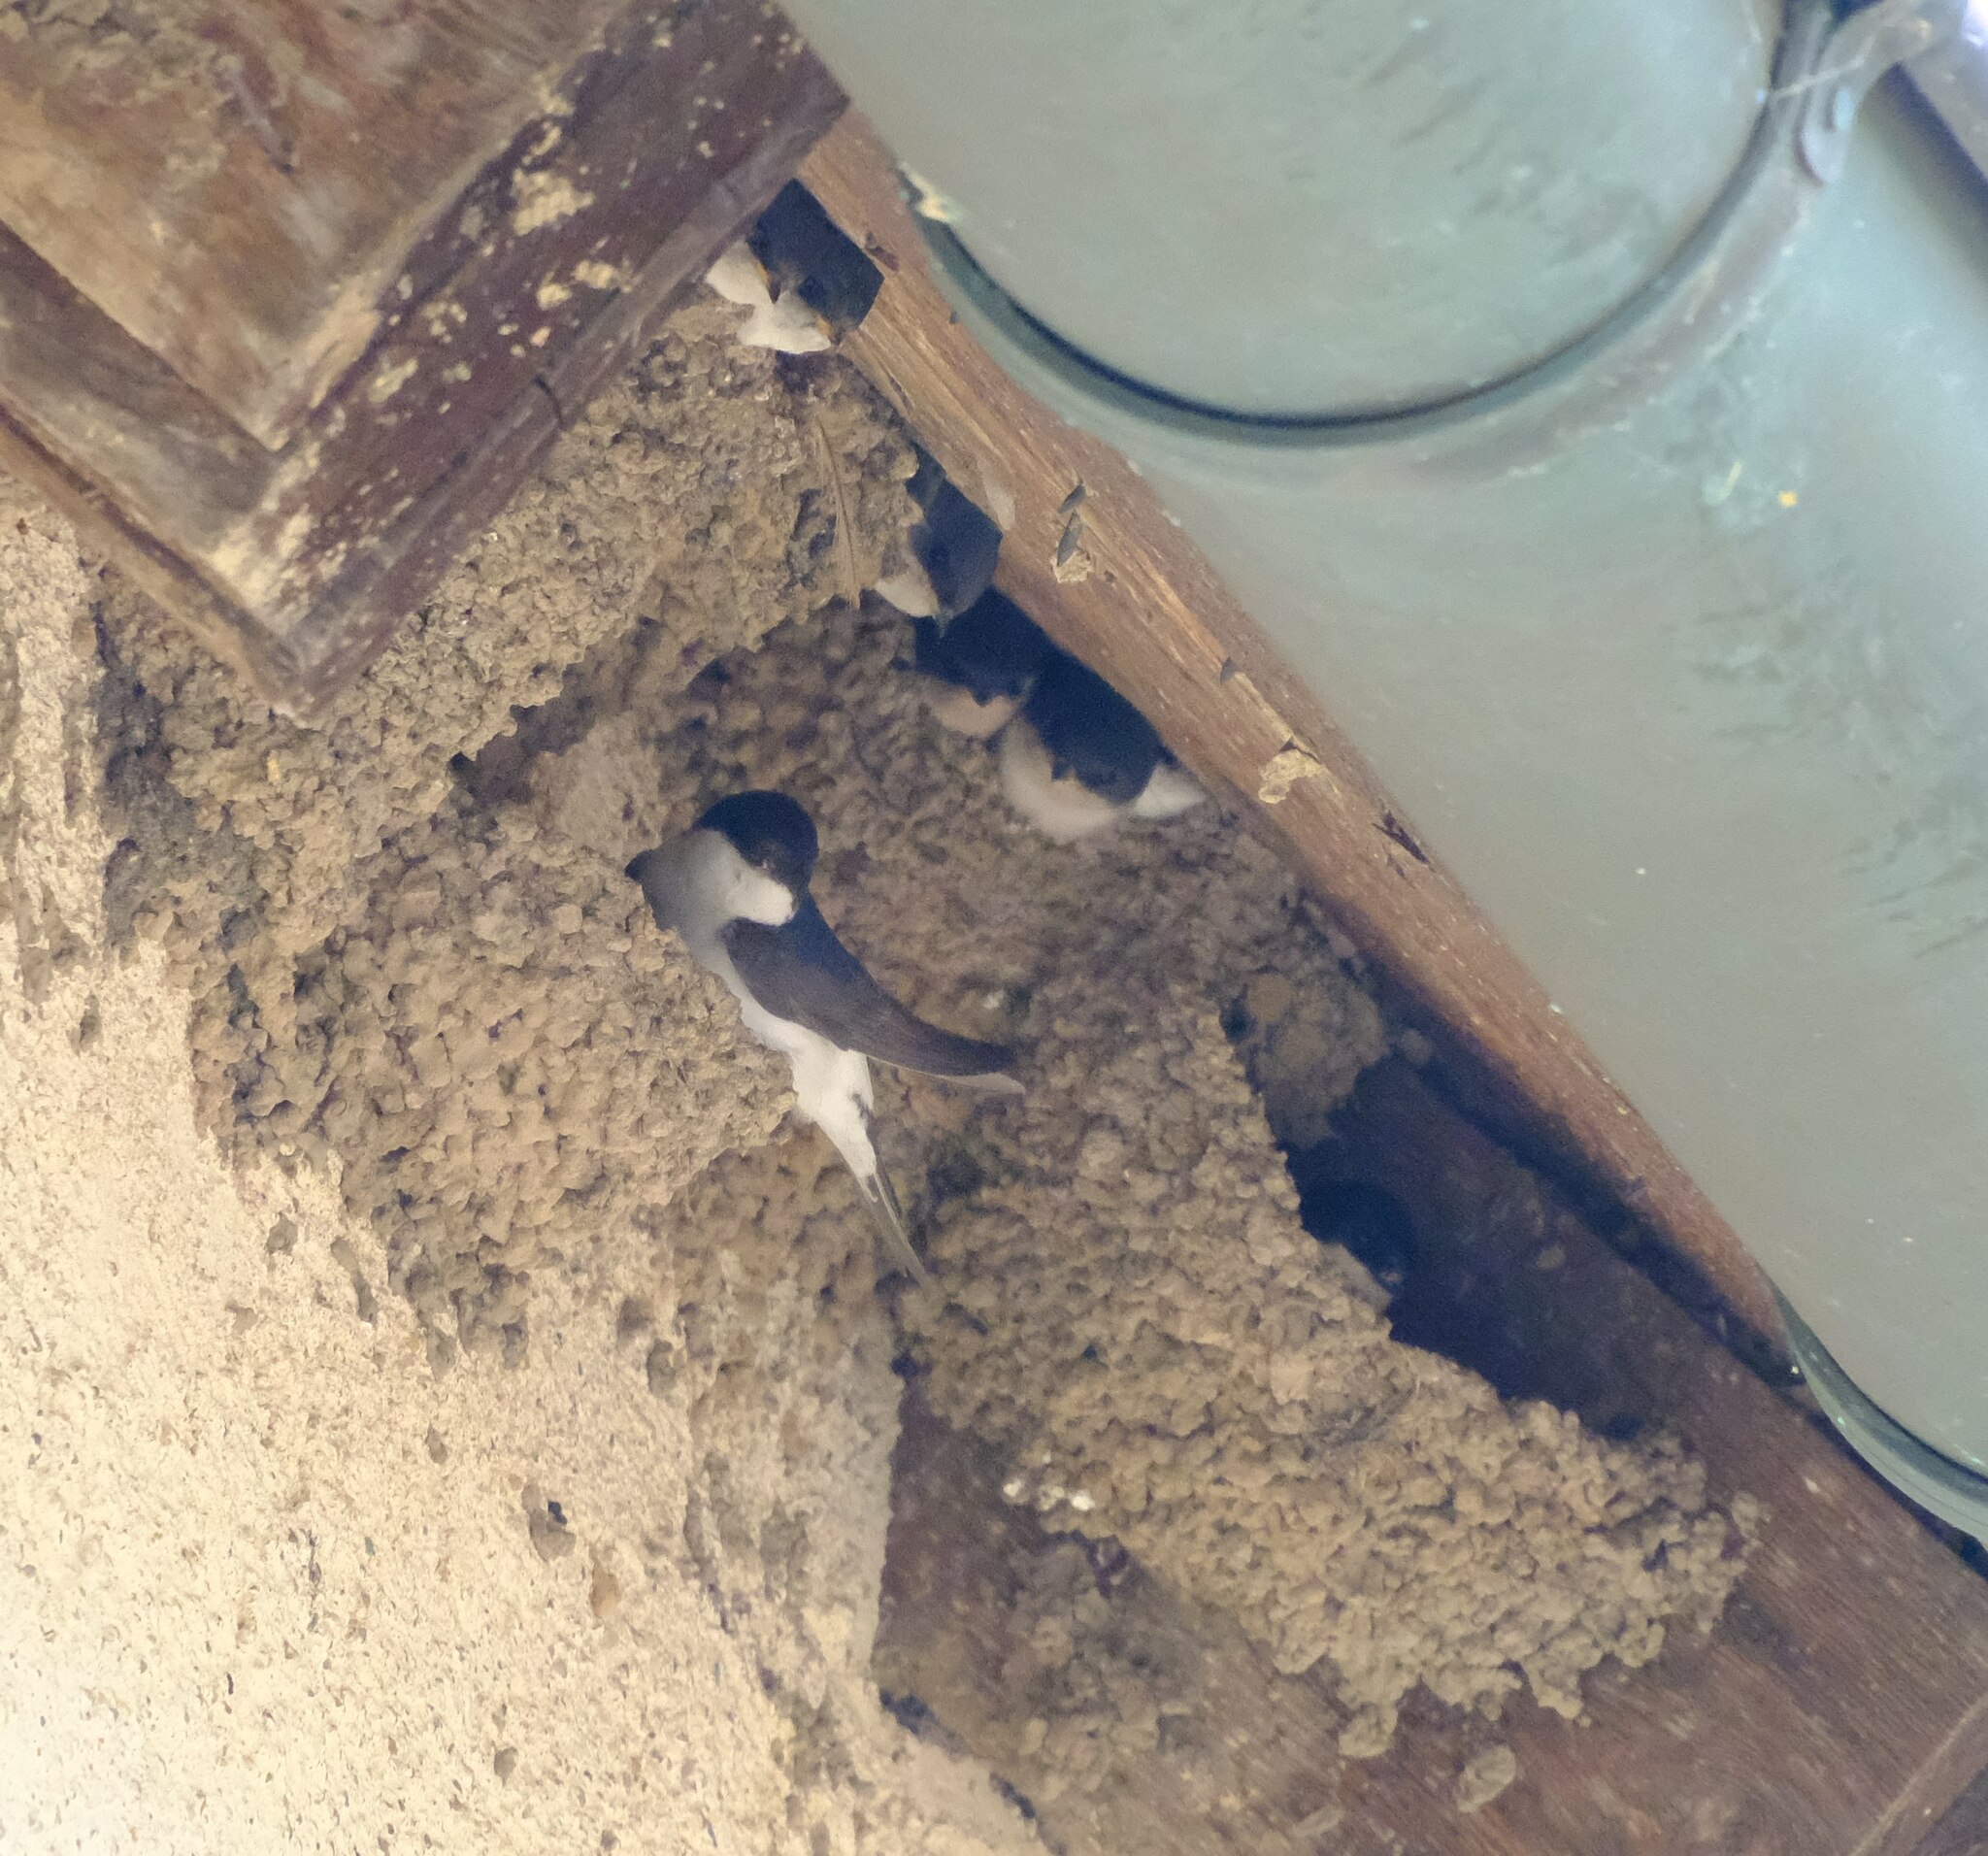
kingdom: Animalia
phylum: Chordata
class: Aves
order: Passeriformes
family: Hirundinidae
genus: Delichon
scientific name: Delichon urbicum
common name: Common house martin
